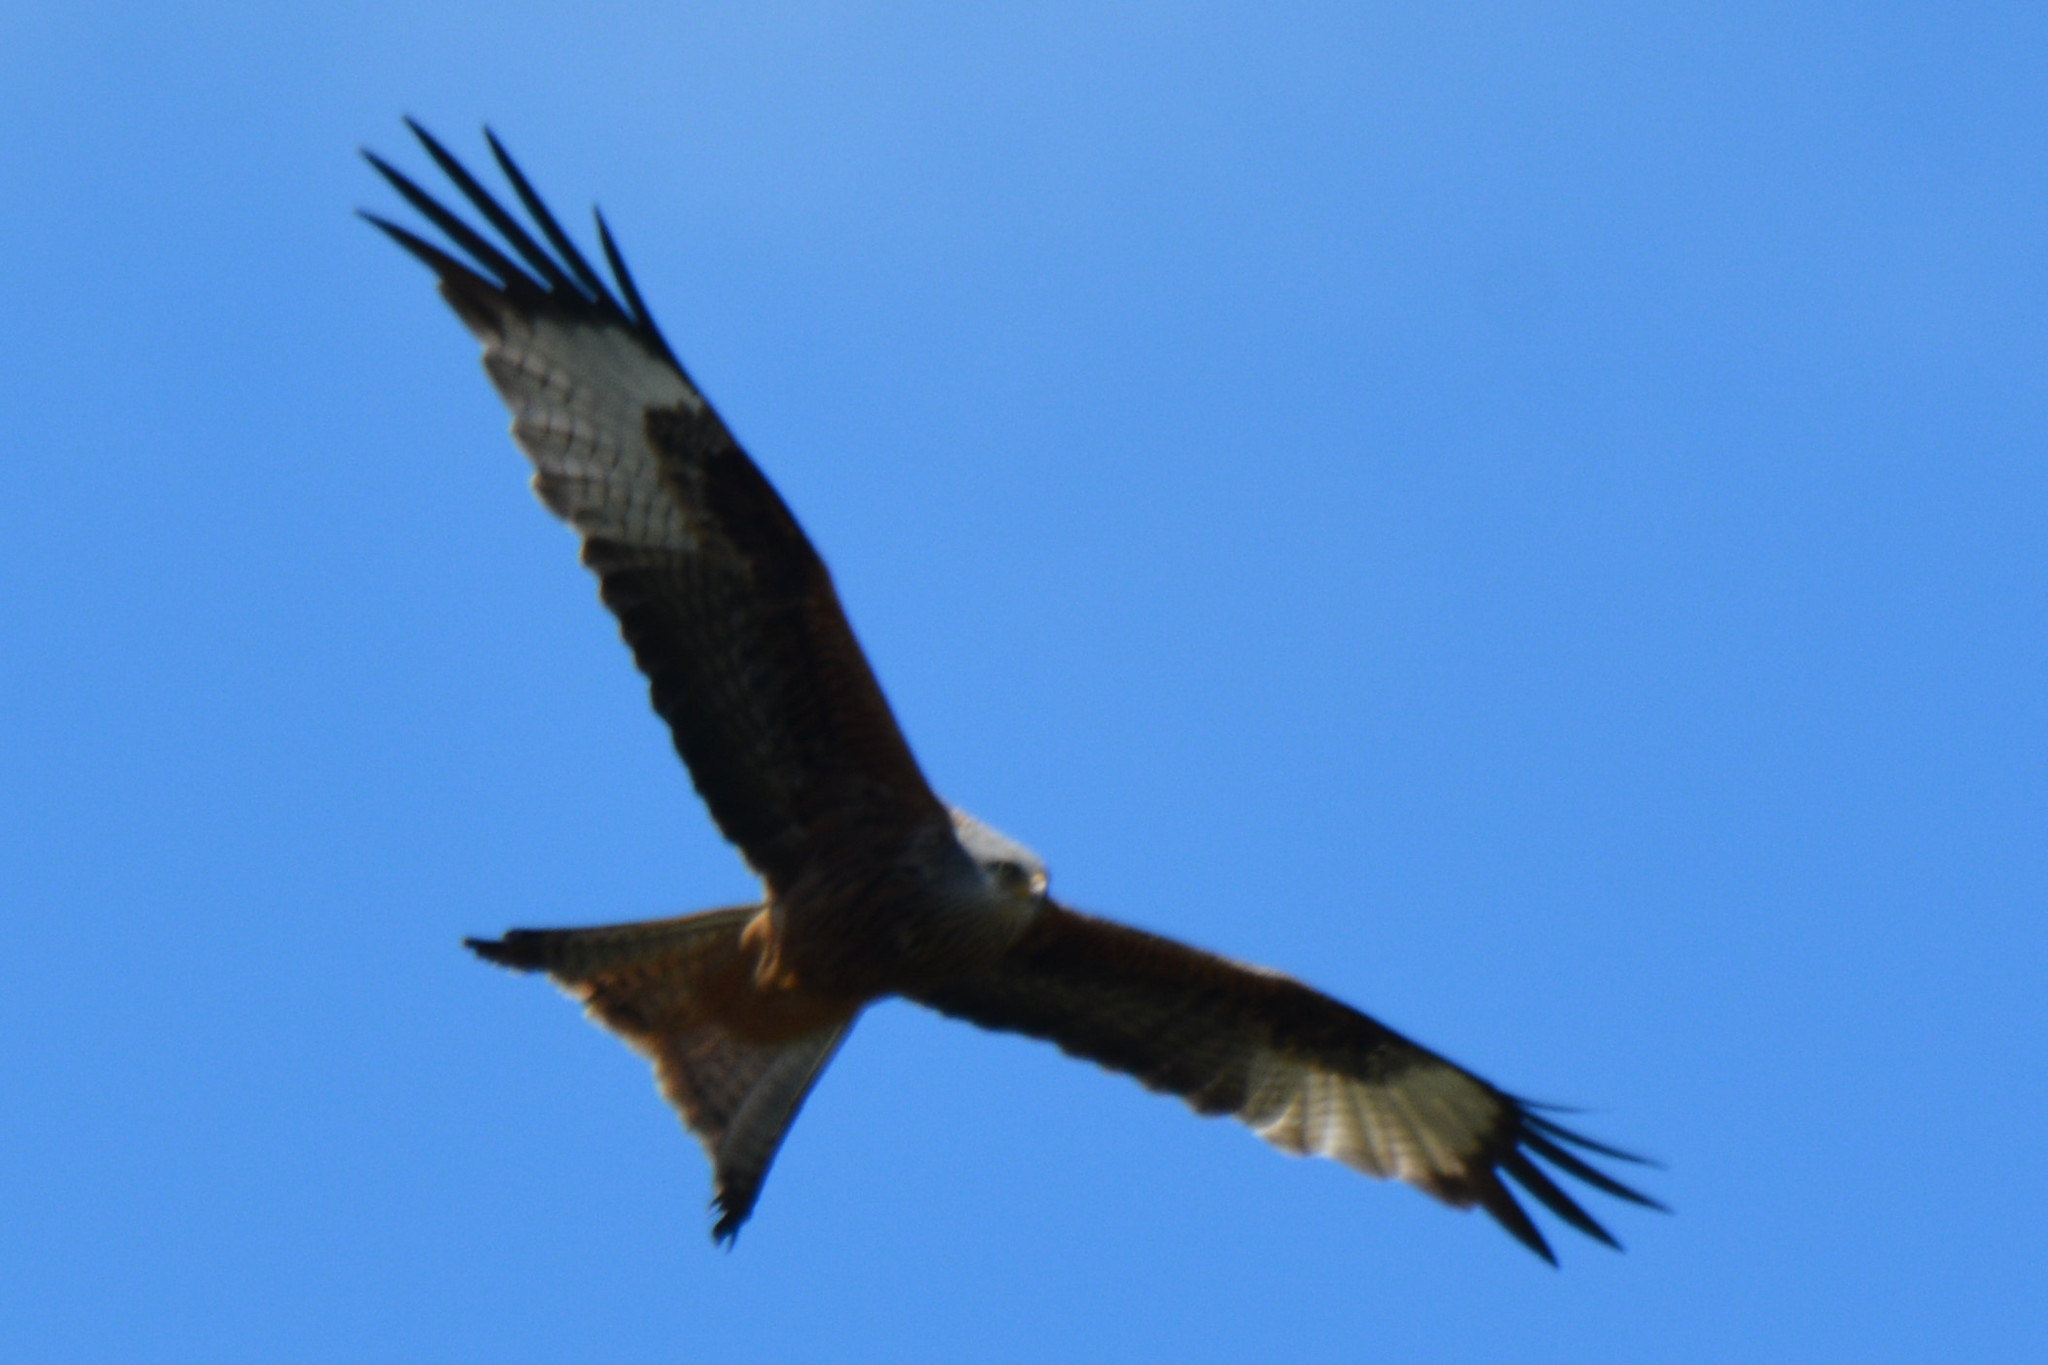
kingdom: Animalia
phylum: Chordata
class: Aves
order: Accipitriformes
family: Accipitridae
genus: Milvus
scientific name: Milvus milvus
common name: Red kite
